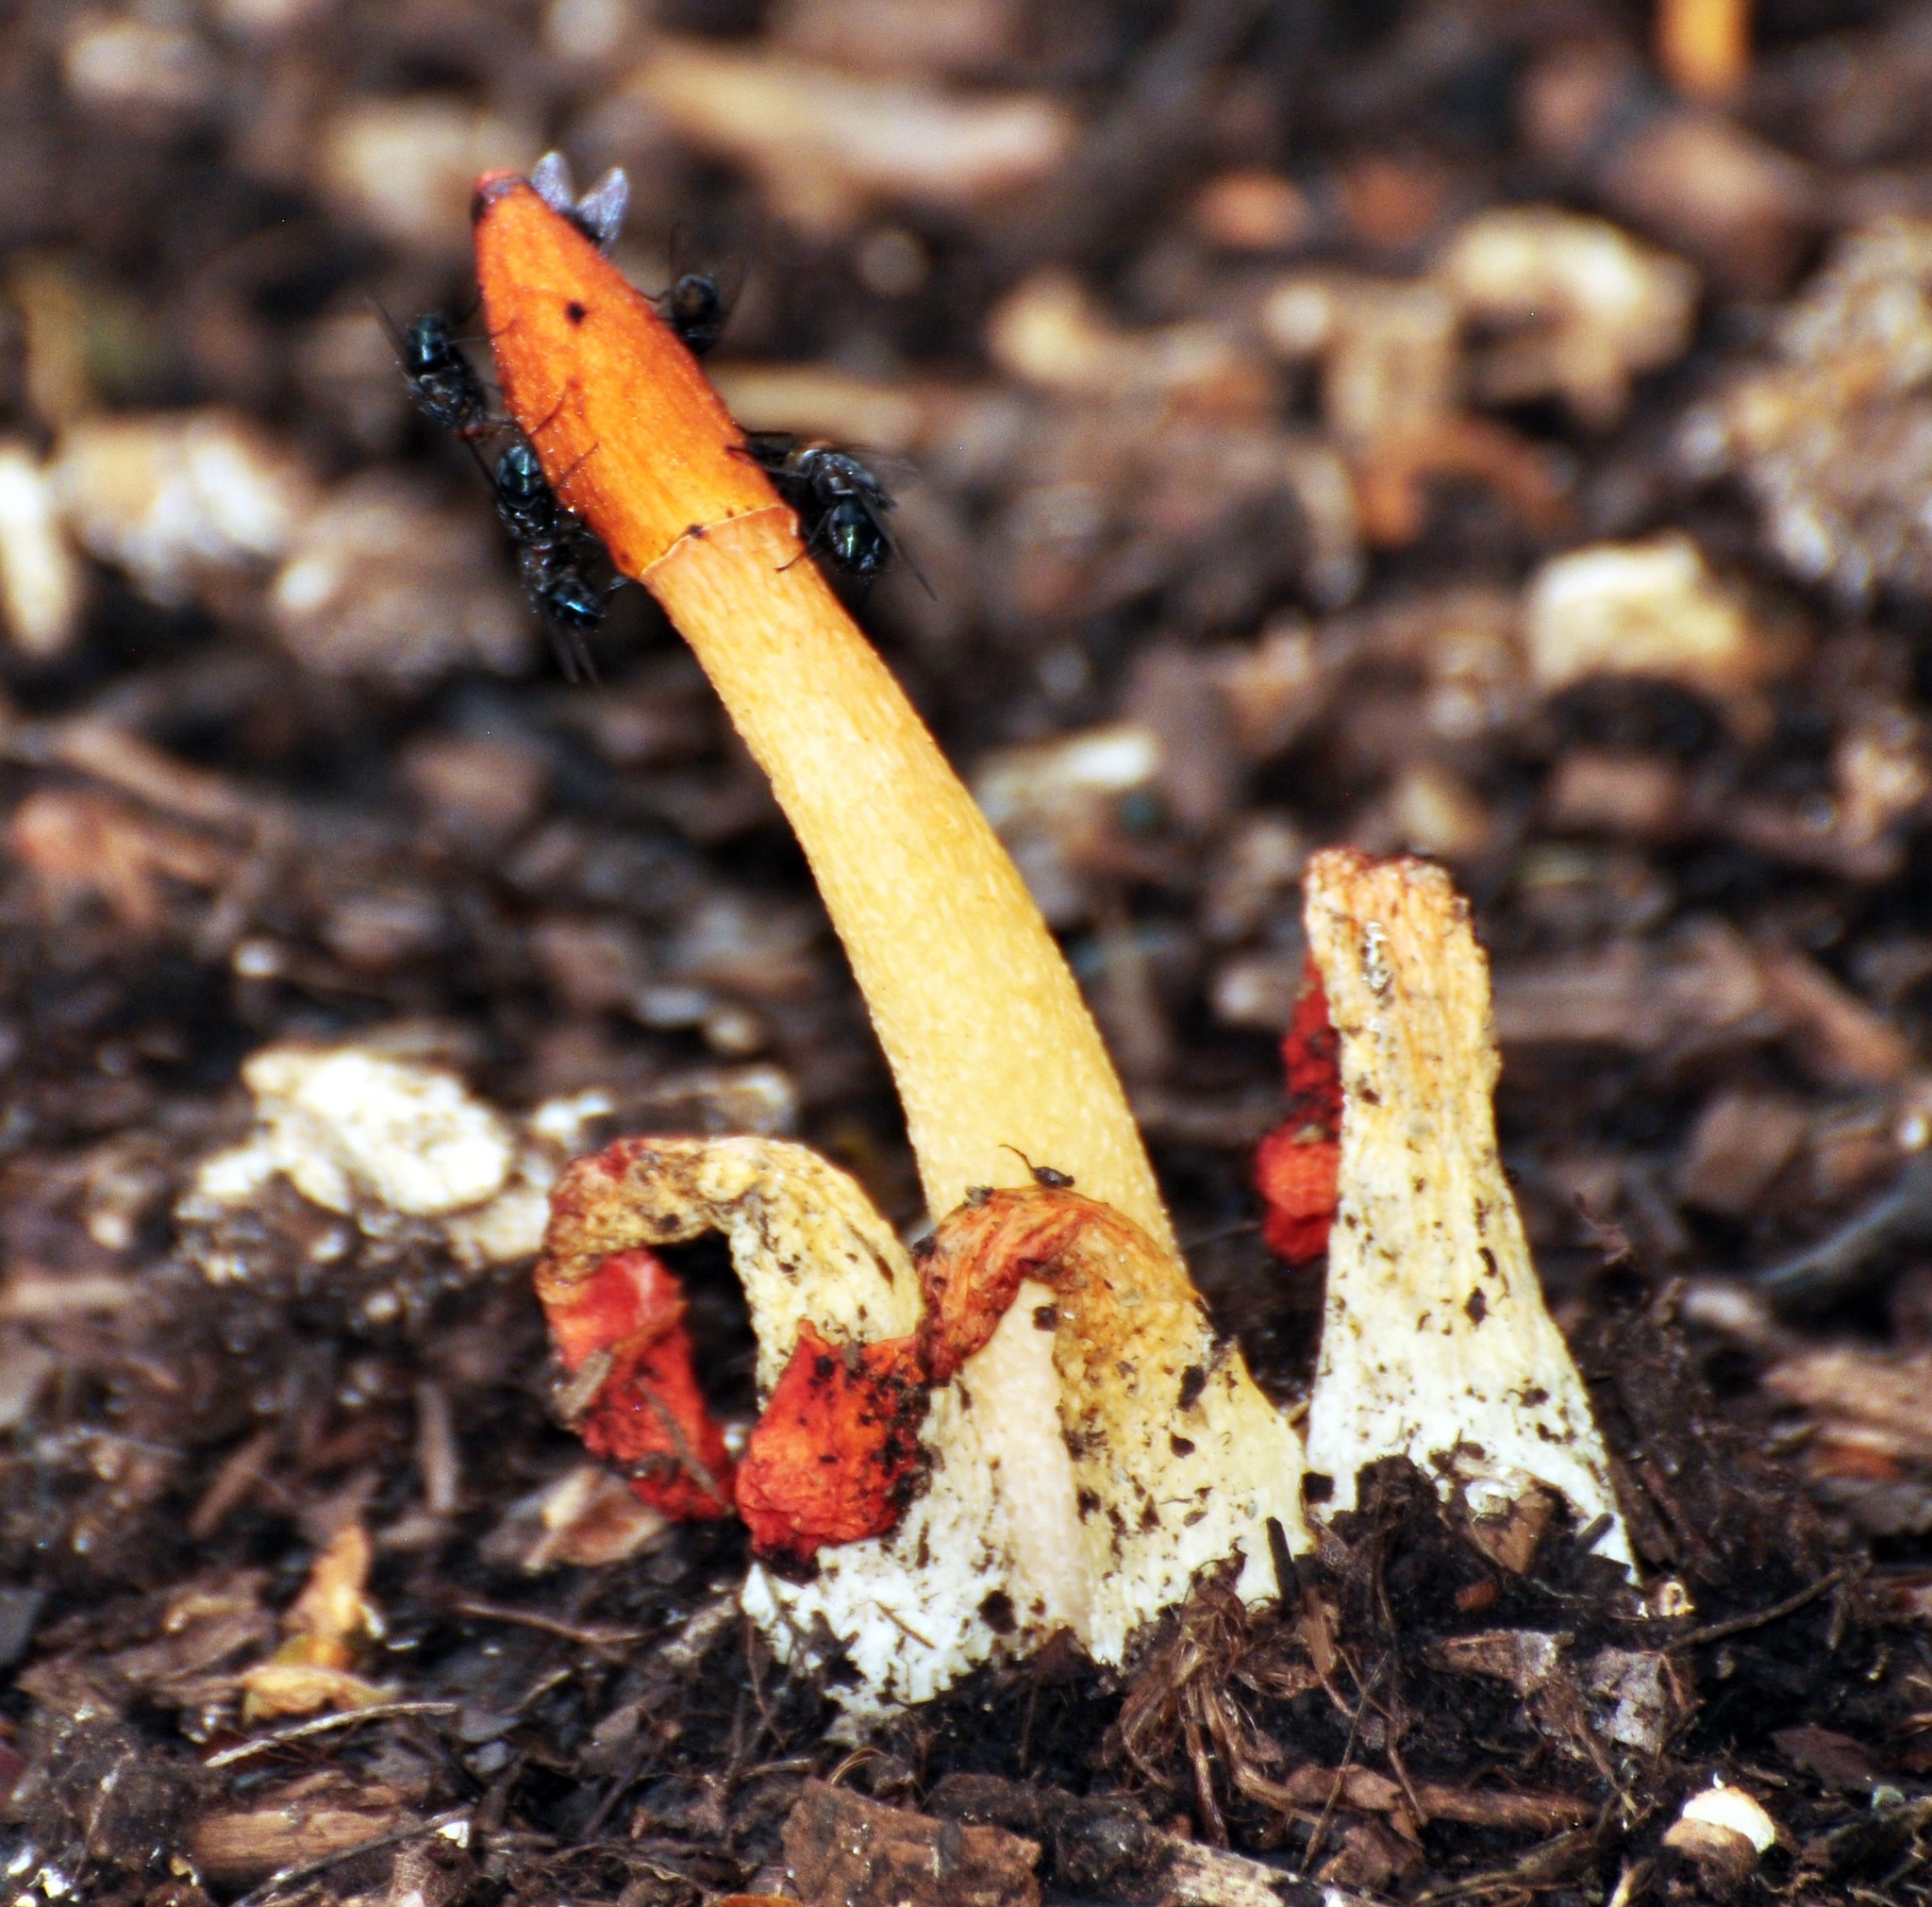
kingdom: Fungi
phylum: Basidiomycota
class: Agaricomycetes
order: Phallales
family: Phallaceae
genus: Phallus
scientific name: Phallus rugulosus
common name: Wrinkly stinkhorn
